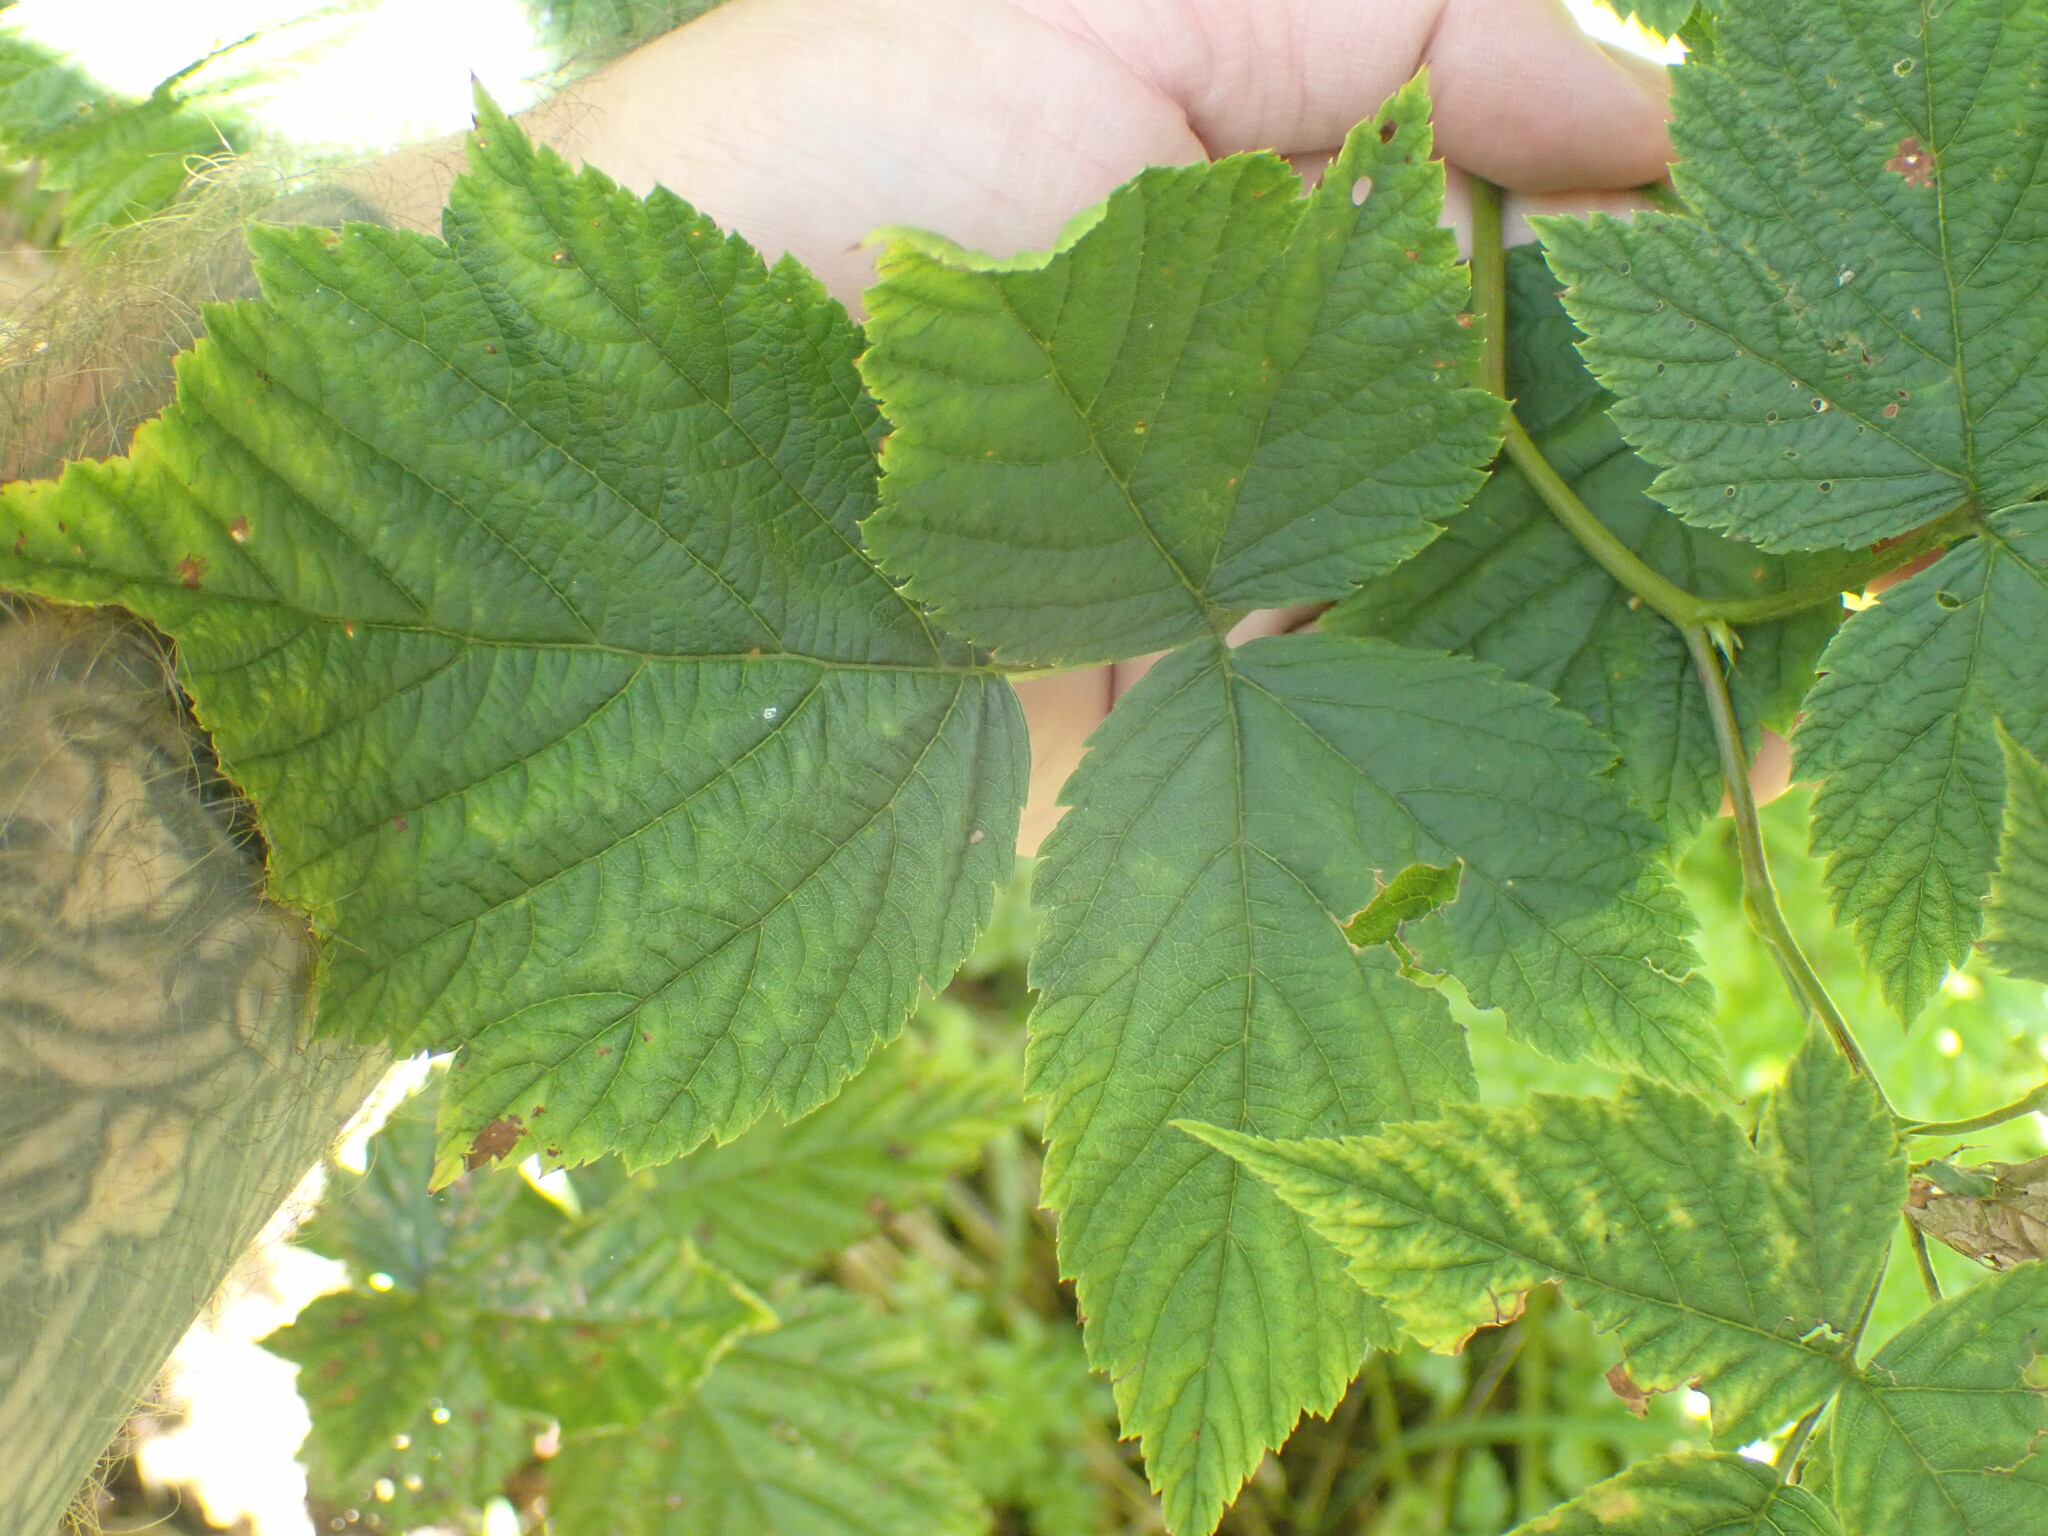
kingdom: Plantae
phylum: Tracheophyta
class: Magnoliopsida
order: Rosales
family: Rosaceae
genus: Rubus
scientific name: Rubus spectabilis
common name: Salmonberry
